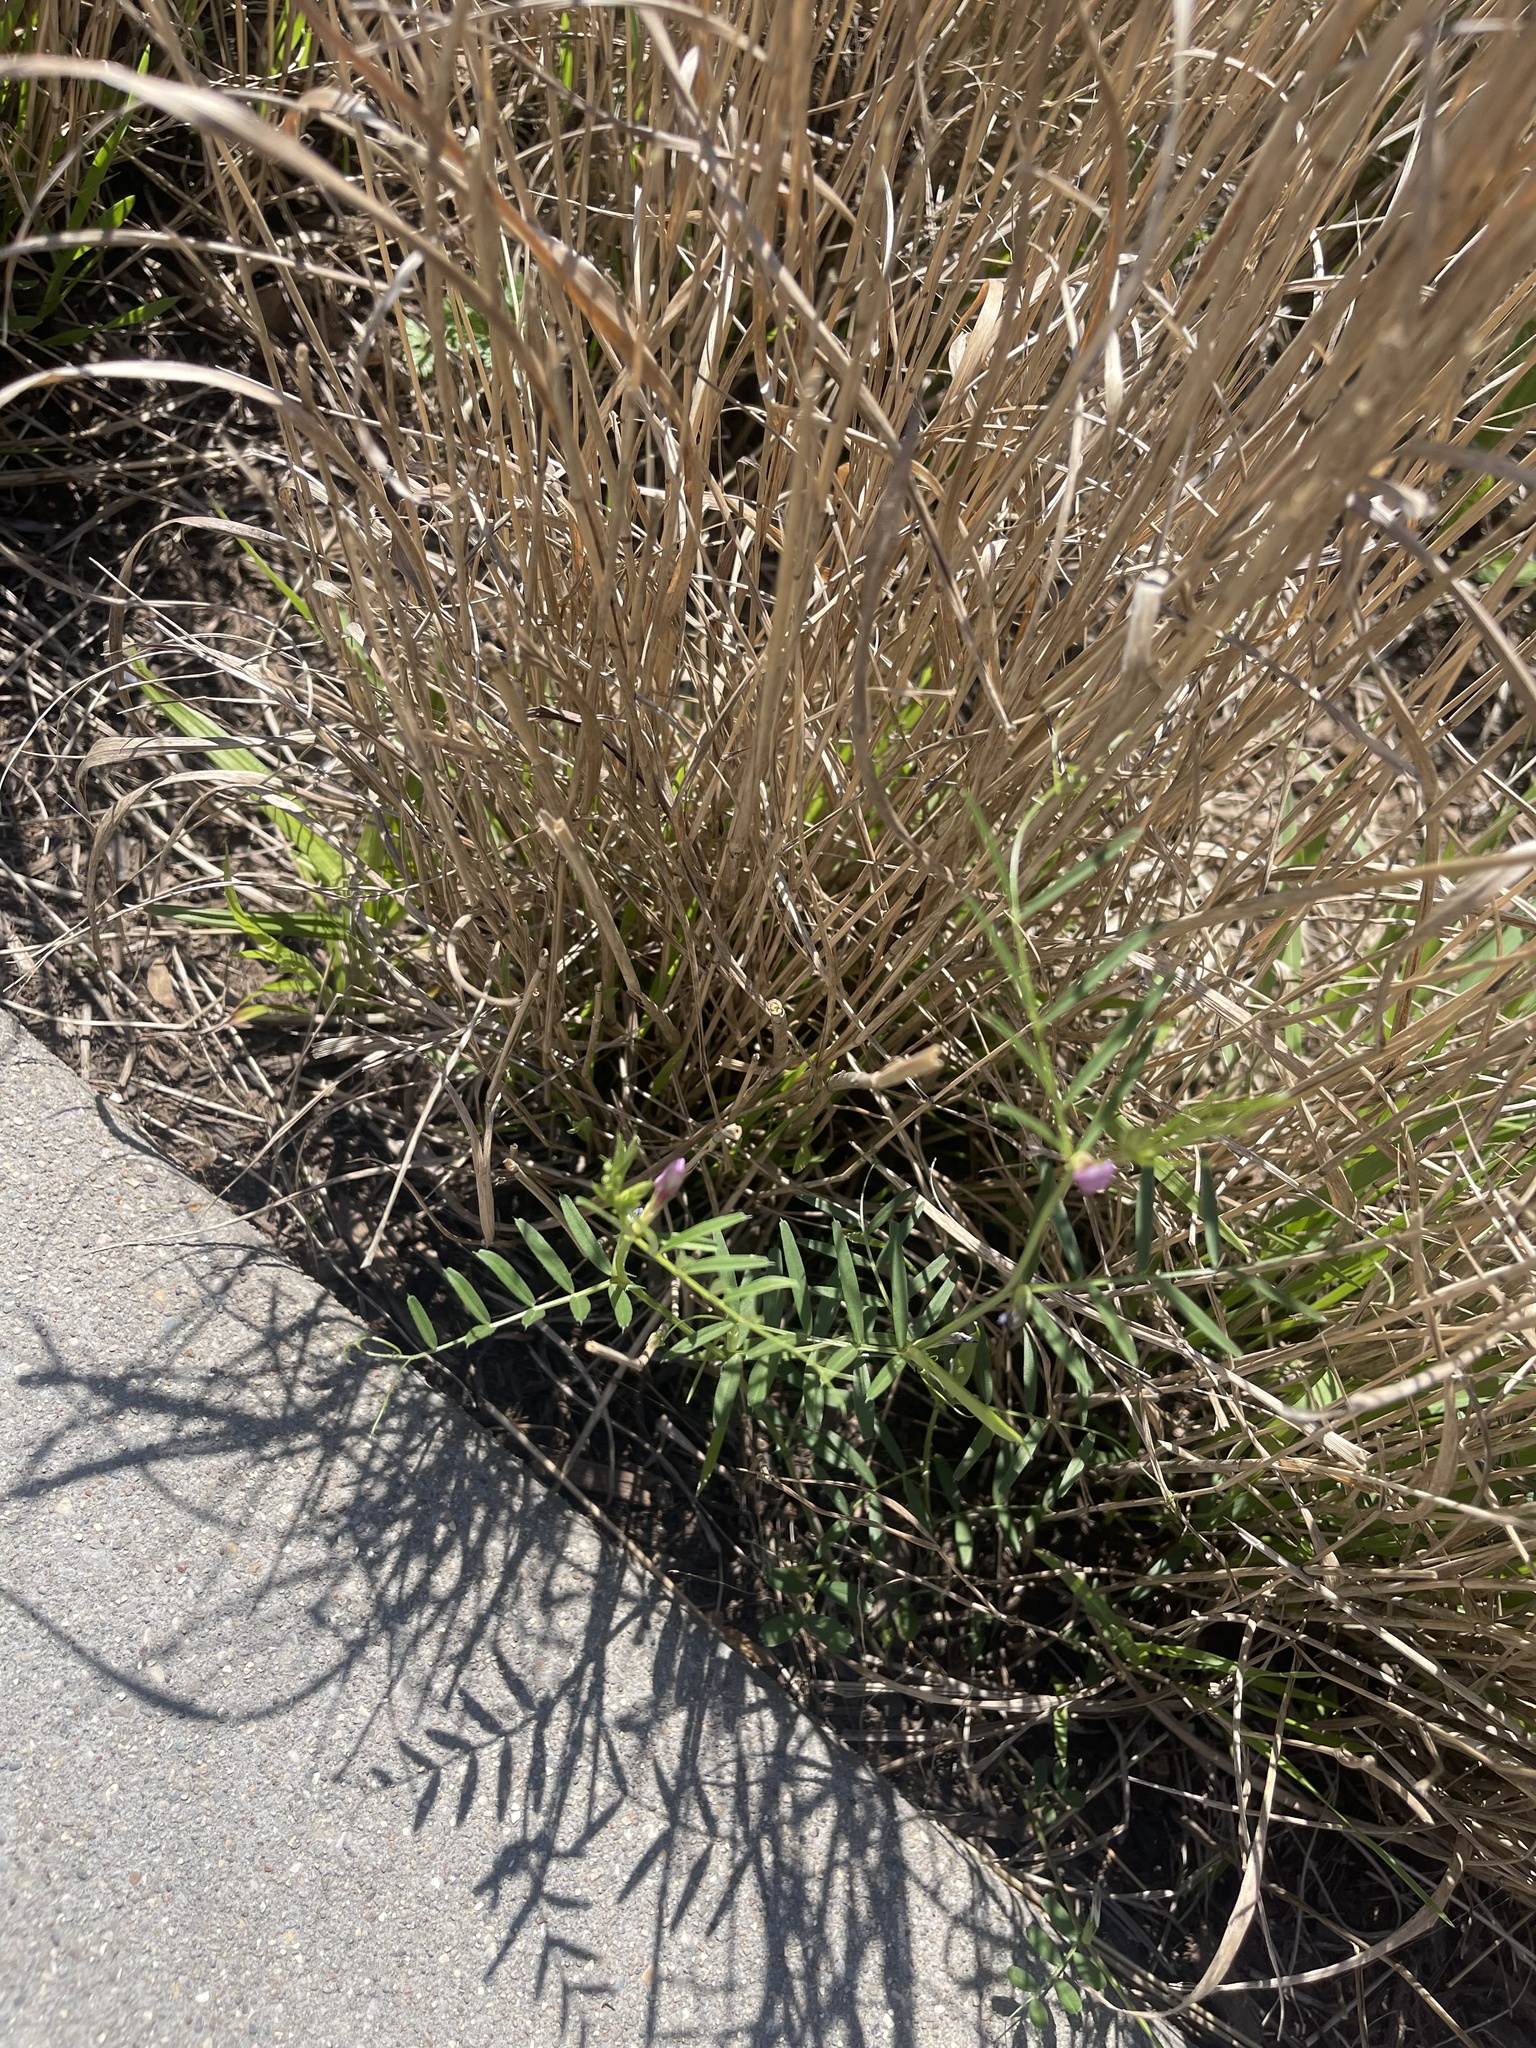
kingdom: Plantae
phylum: Tracheophyta
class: Magnoliopsida
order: Fabales
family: Fabaceae
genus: Vicia
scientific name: Vicia sativa
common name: Garden vetch
